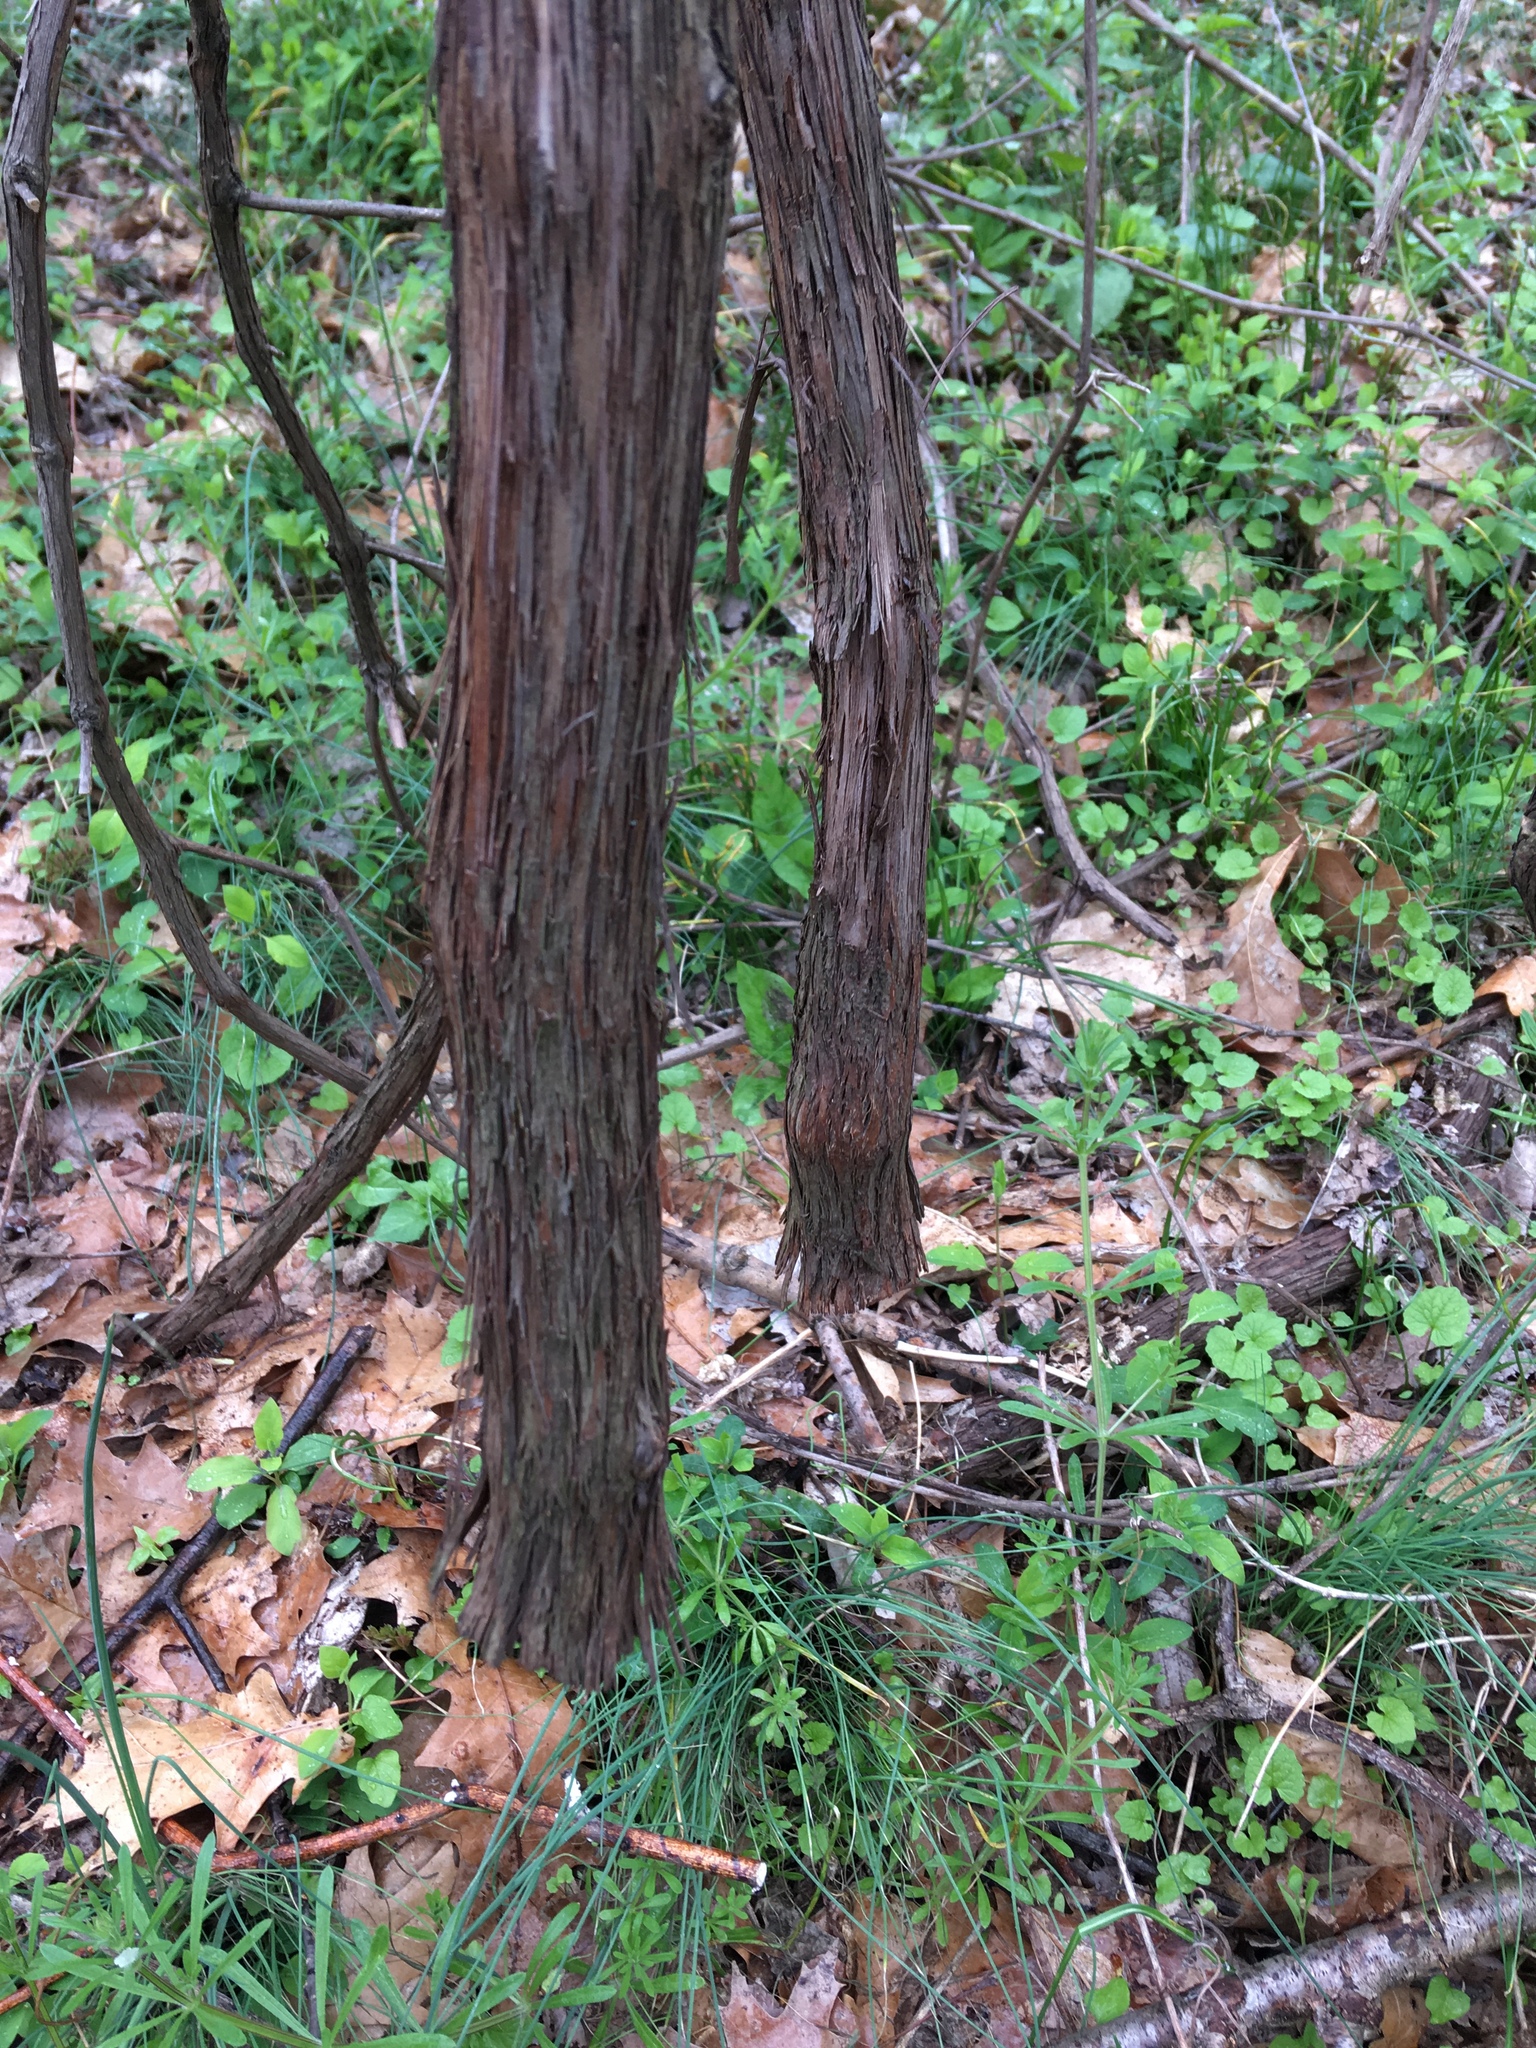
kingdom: Plantae
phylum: Tracheophyta
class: Magnoliopsida
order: Vitales
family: Vitaceae
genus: Vitis
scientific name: Vitis
